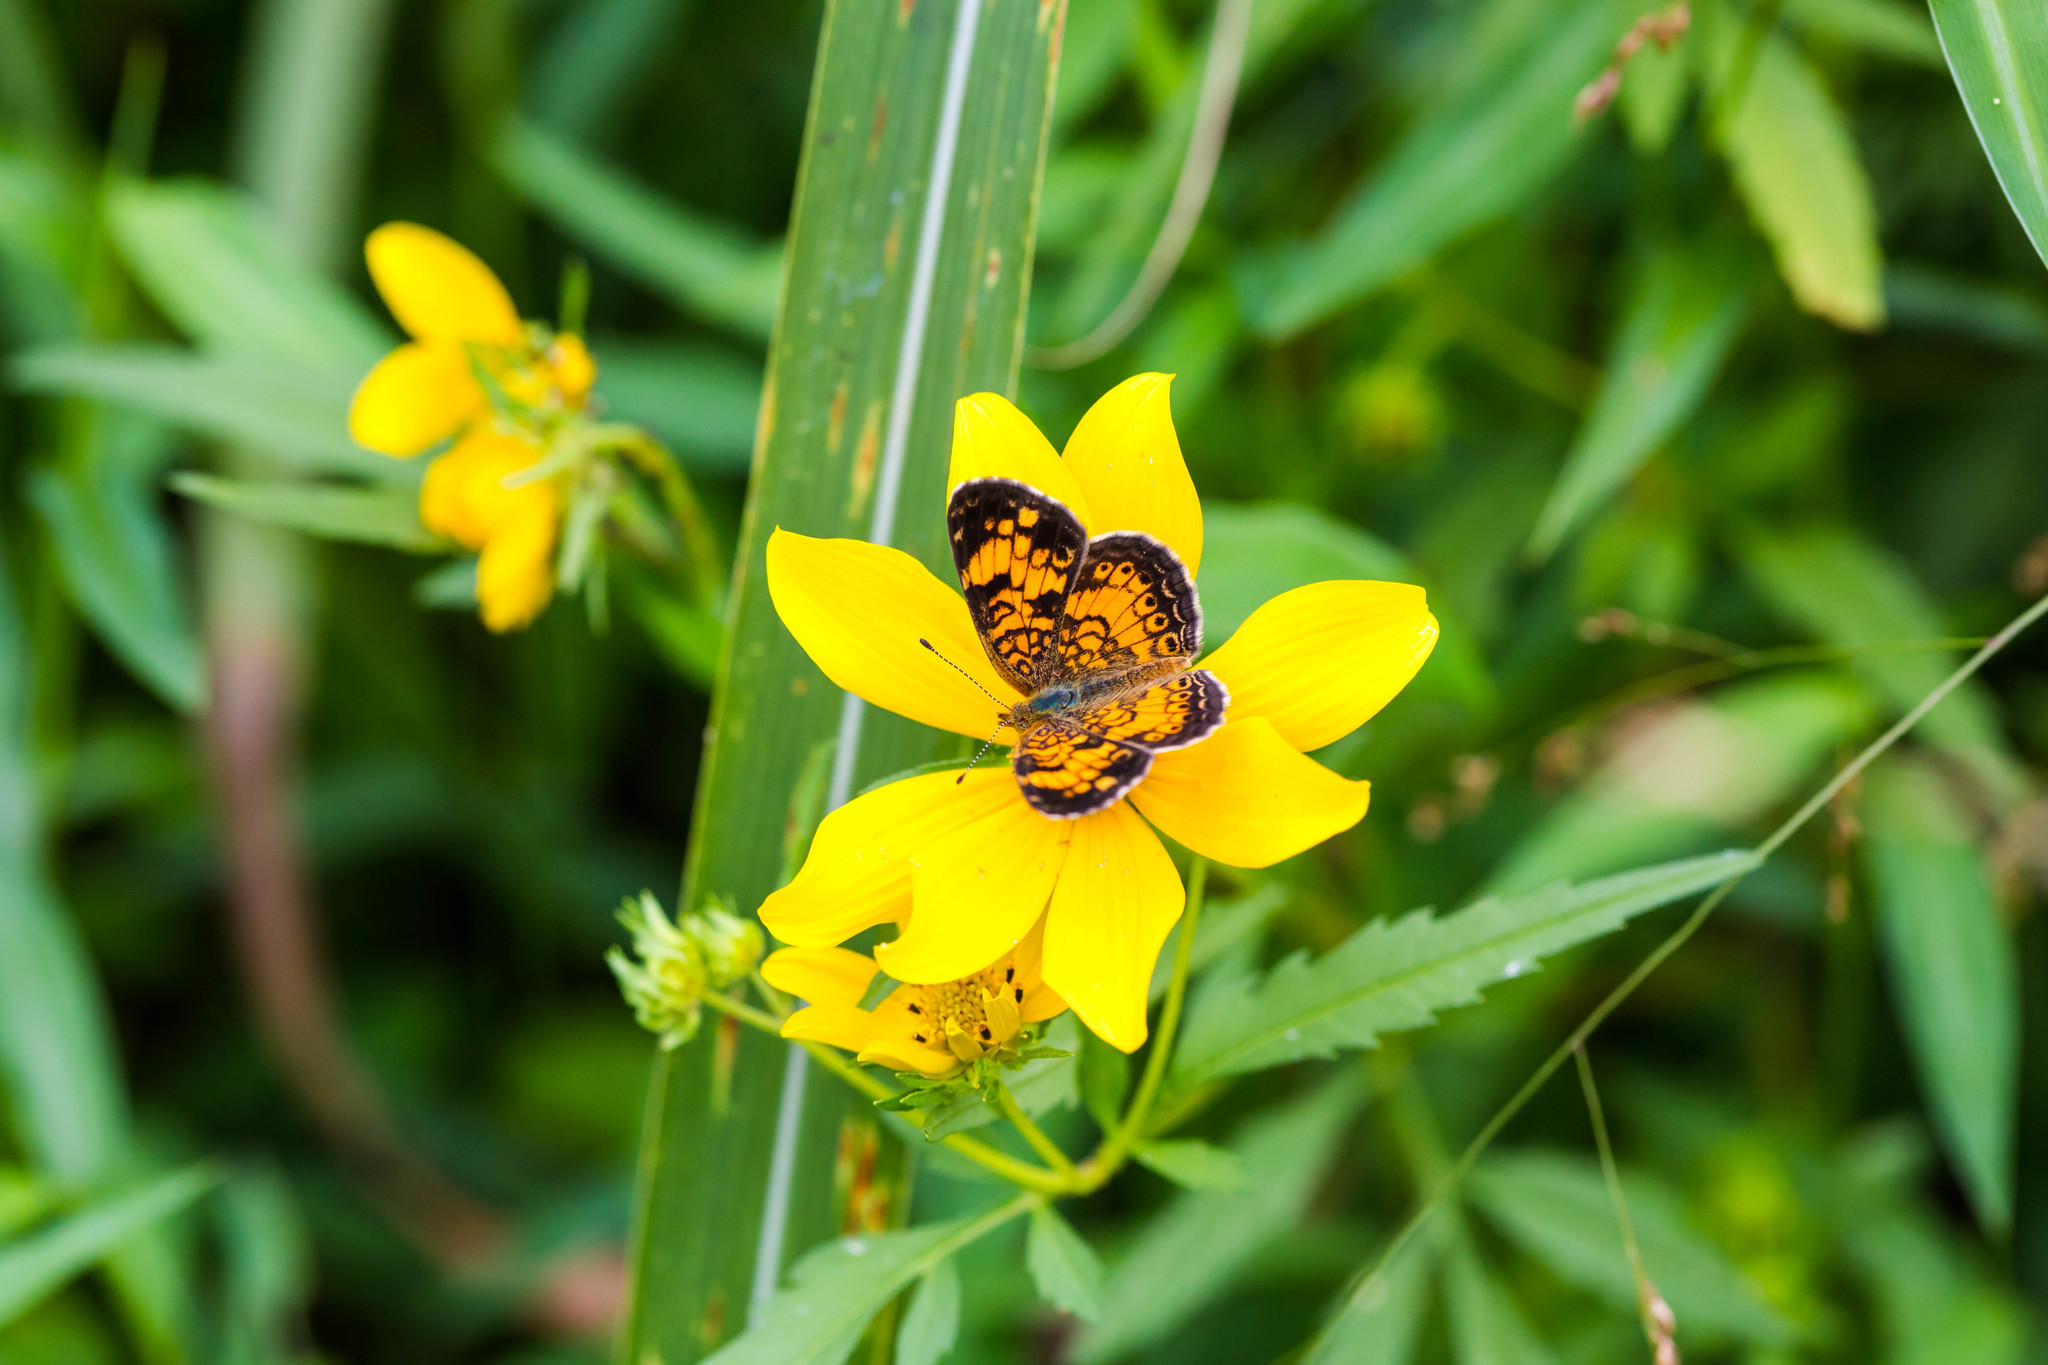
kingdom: Animalia
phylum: Arthropoda
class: Insecta
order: Lepidoptera
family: Nymphalidae
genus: Phyciodes
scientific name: Phyciodes tharos
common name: Pearl crescent
